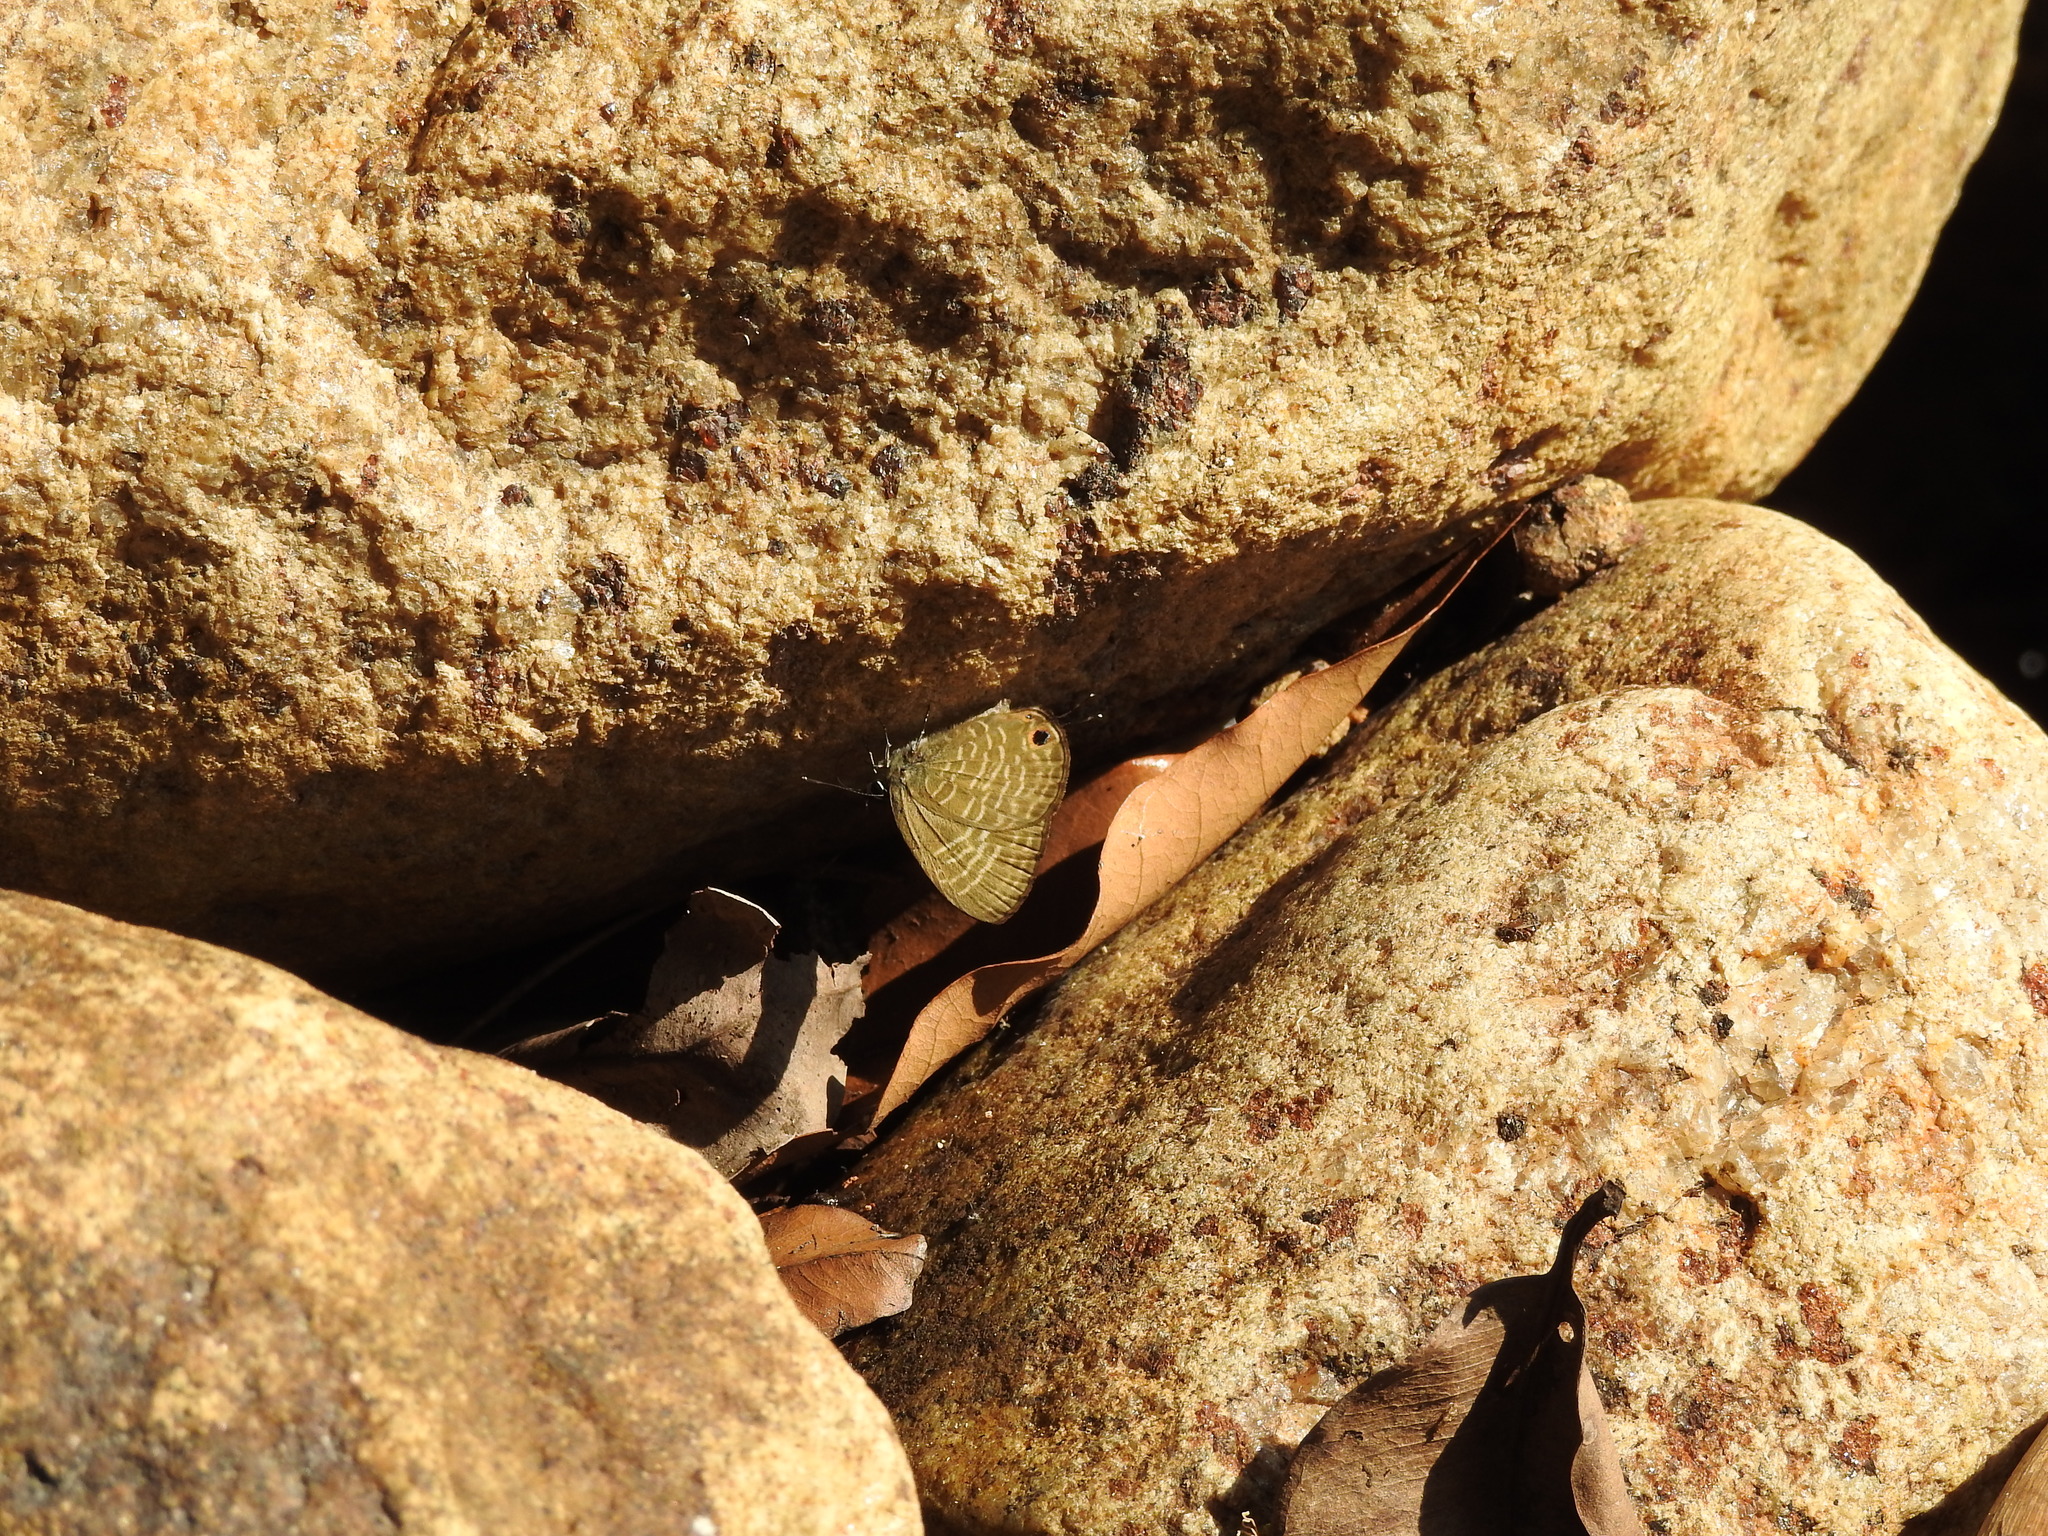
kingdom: Animalia
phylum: Arthropoda
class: Insecta
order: Lepidoptera
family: Lycaenidae
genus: Nacaduba
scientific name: Nacaduba pactolus
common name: Large fourline blue
